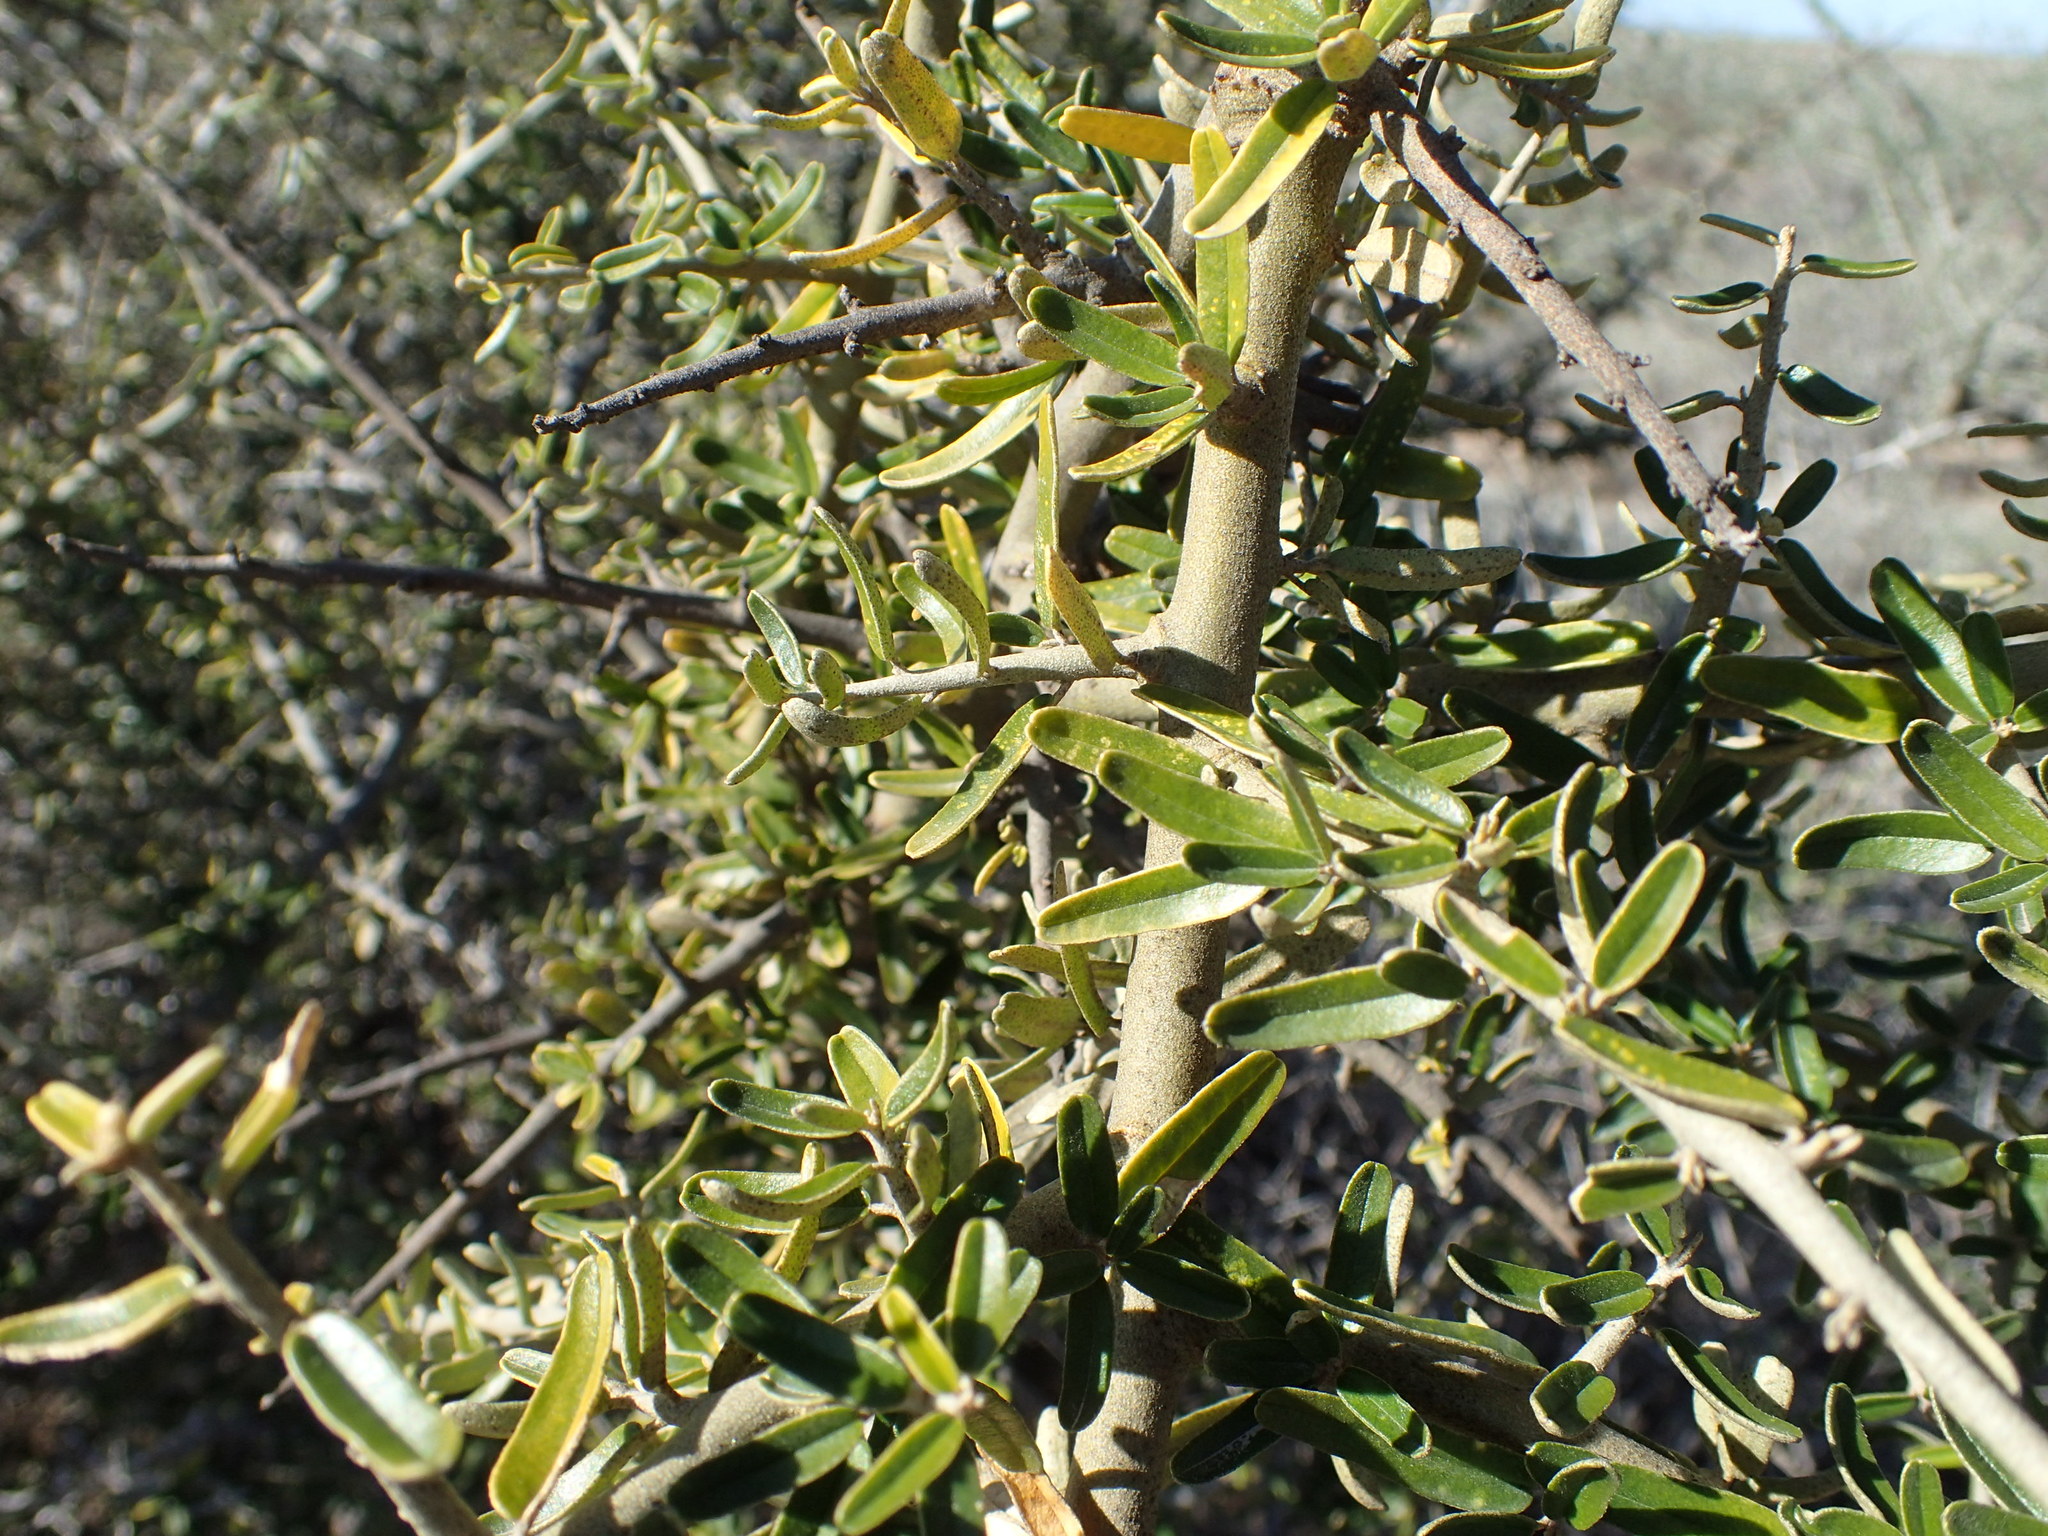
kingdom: Plantae
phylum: Tracheophyta
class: Magnoliopsida
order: Brassicales
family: Capparaceae
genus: Atamisquea
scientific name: Atamisquea emarginata
